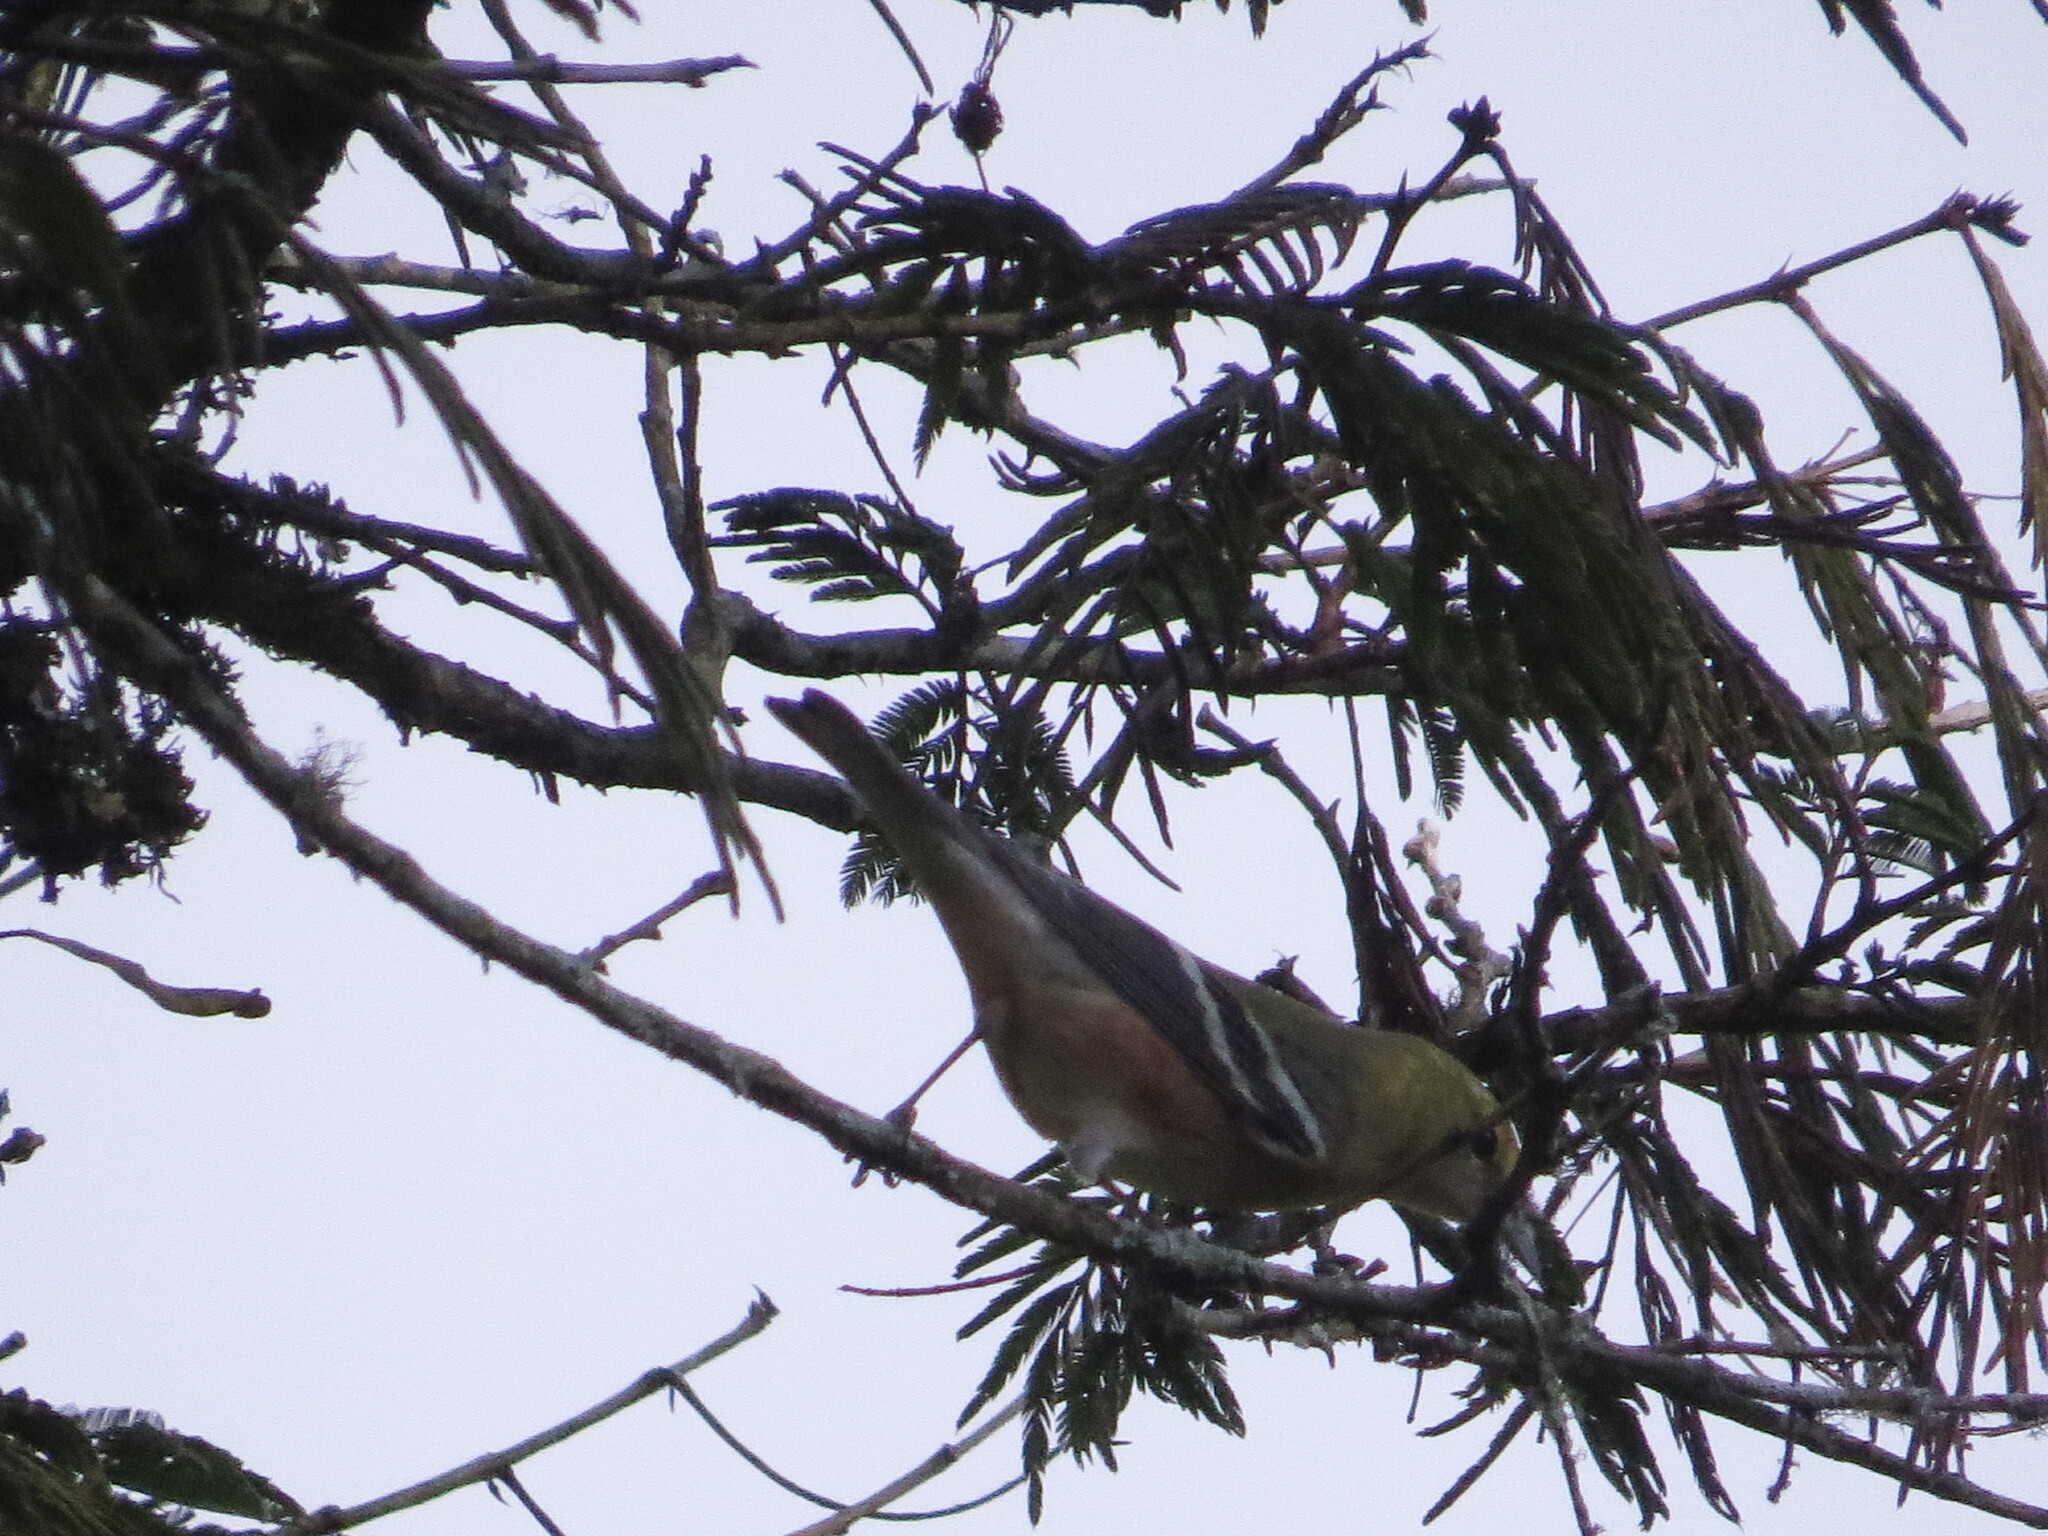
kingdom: Animalia
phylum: Chordata
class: Aves
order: Passeriformes
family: Parulidae
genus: Setophaga
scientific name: Setophaga castanea
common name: Bay-breasted warbler
